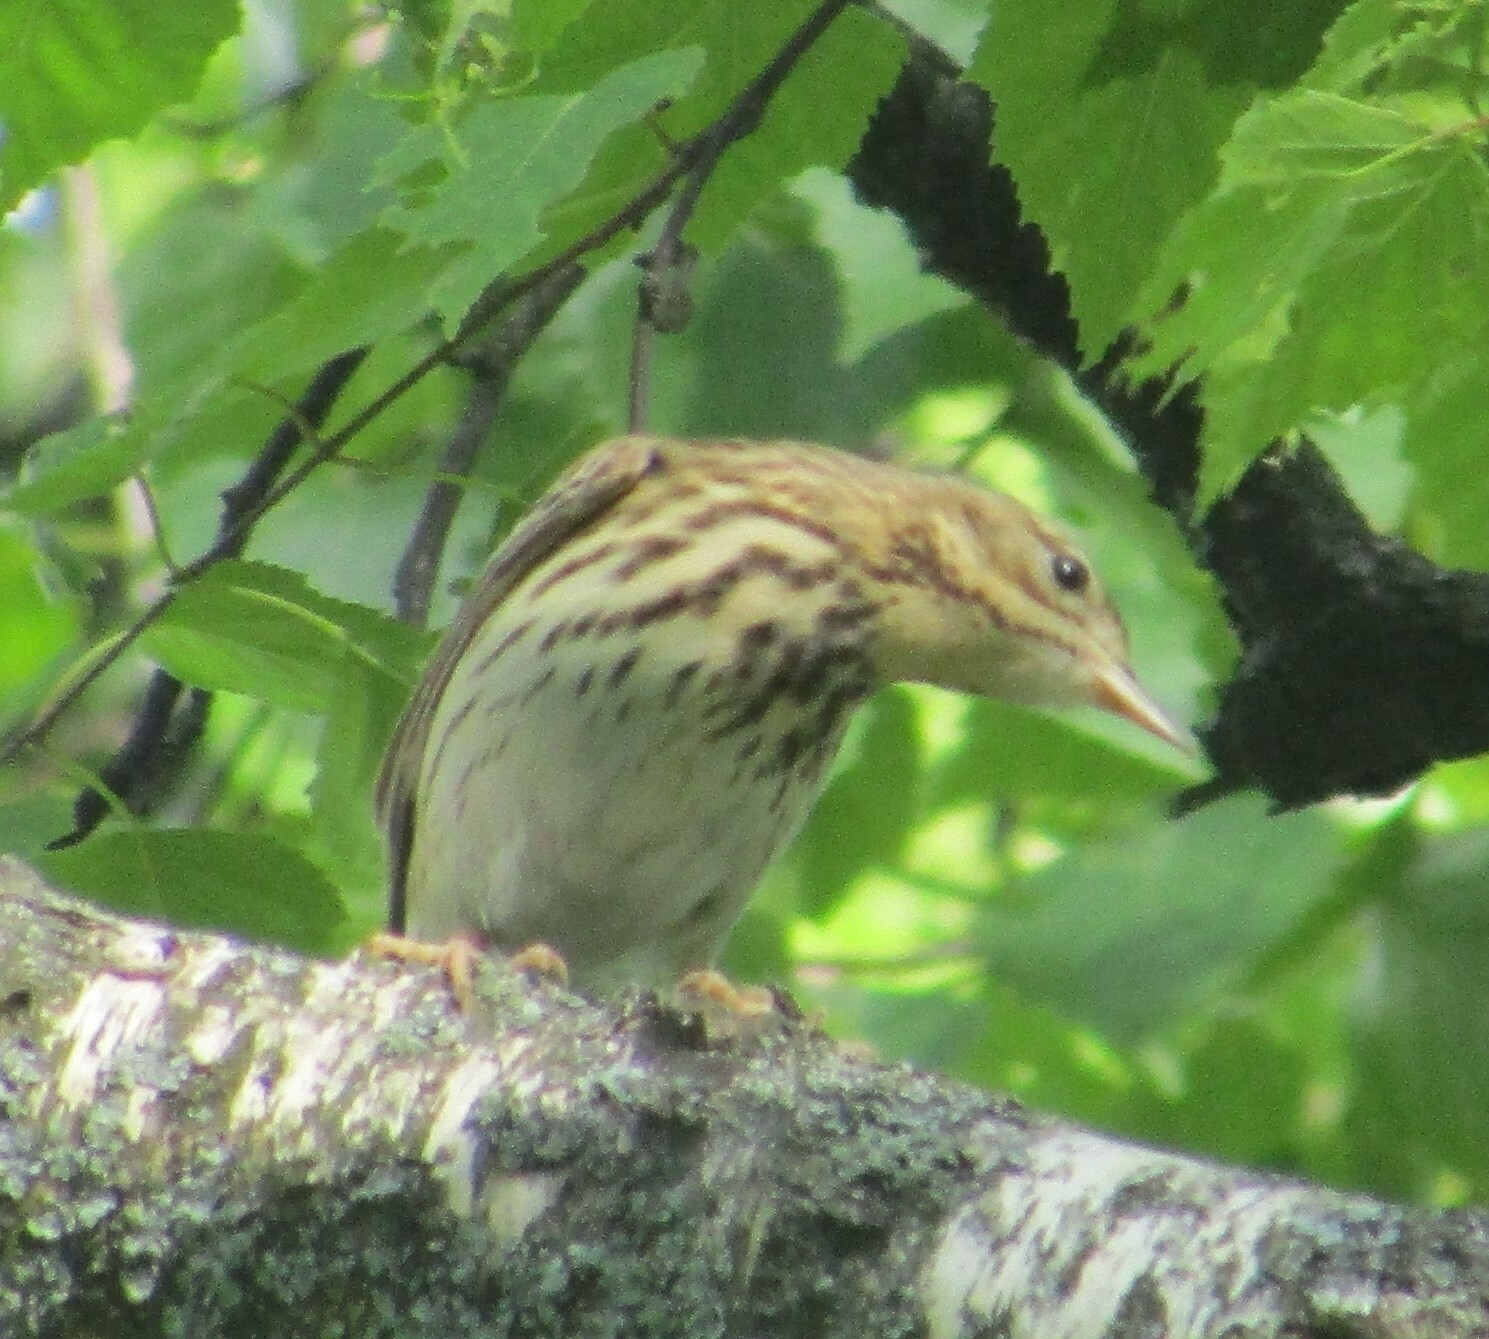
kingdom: Animalia
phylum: Chordata
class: Aves
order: Passeriformes
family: Motacillidae
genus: Anthus
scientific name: Anthus trivialis
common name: Tree pipit
